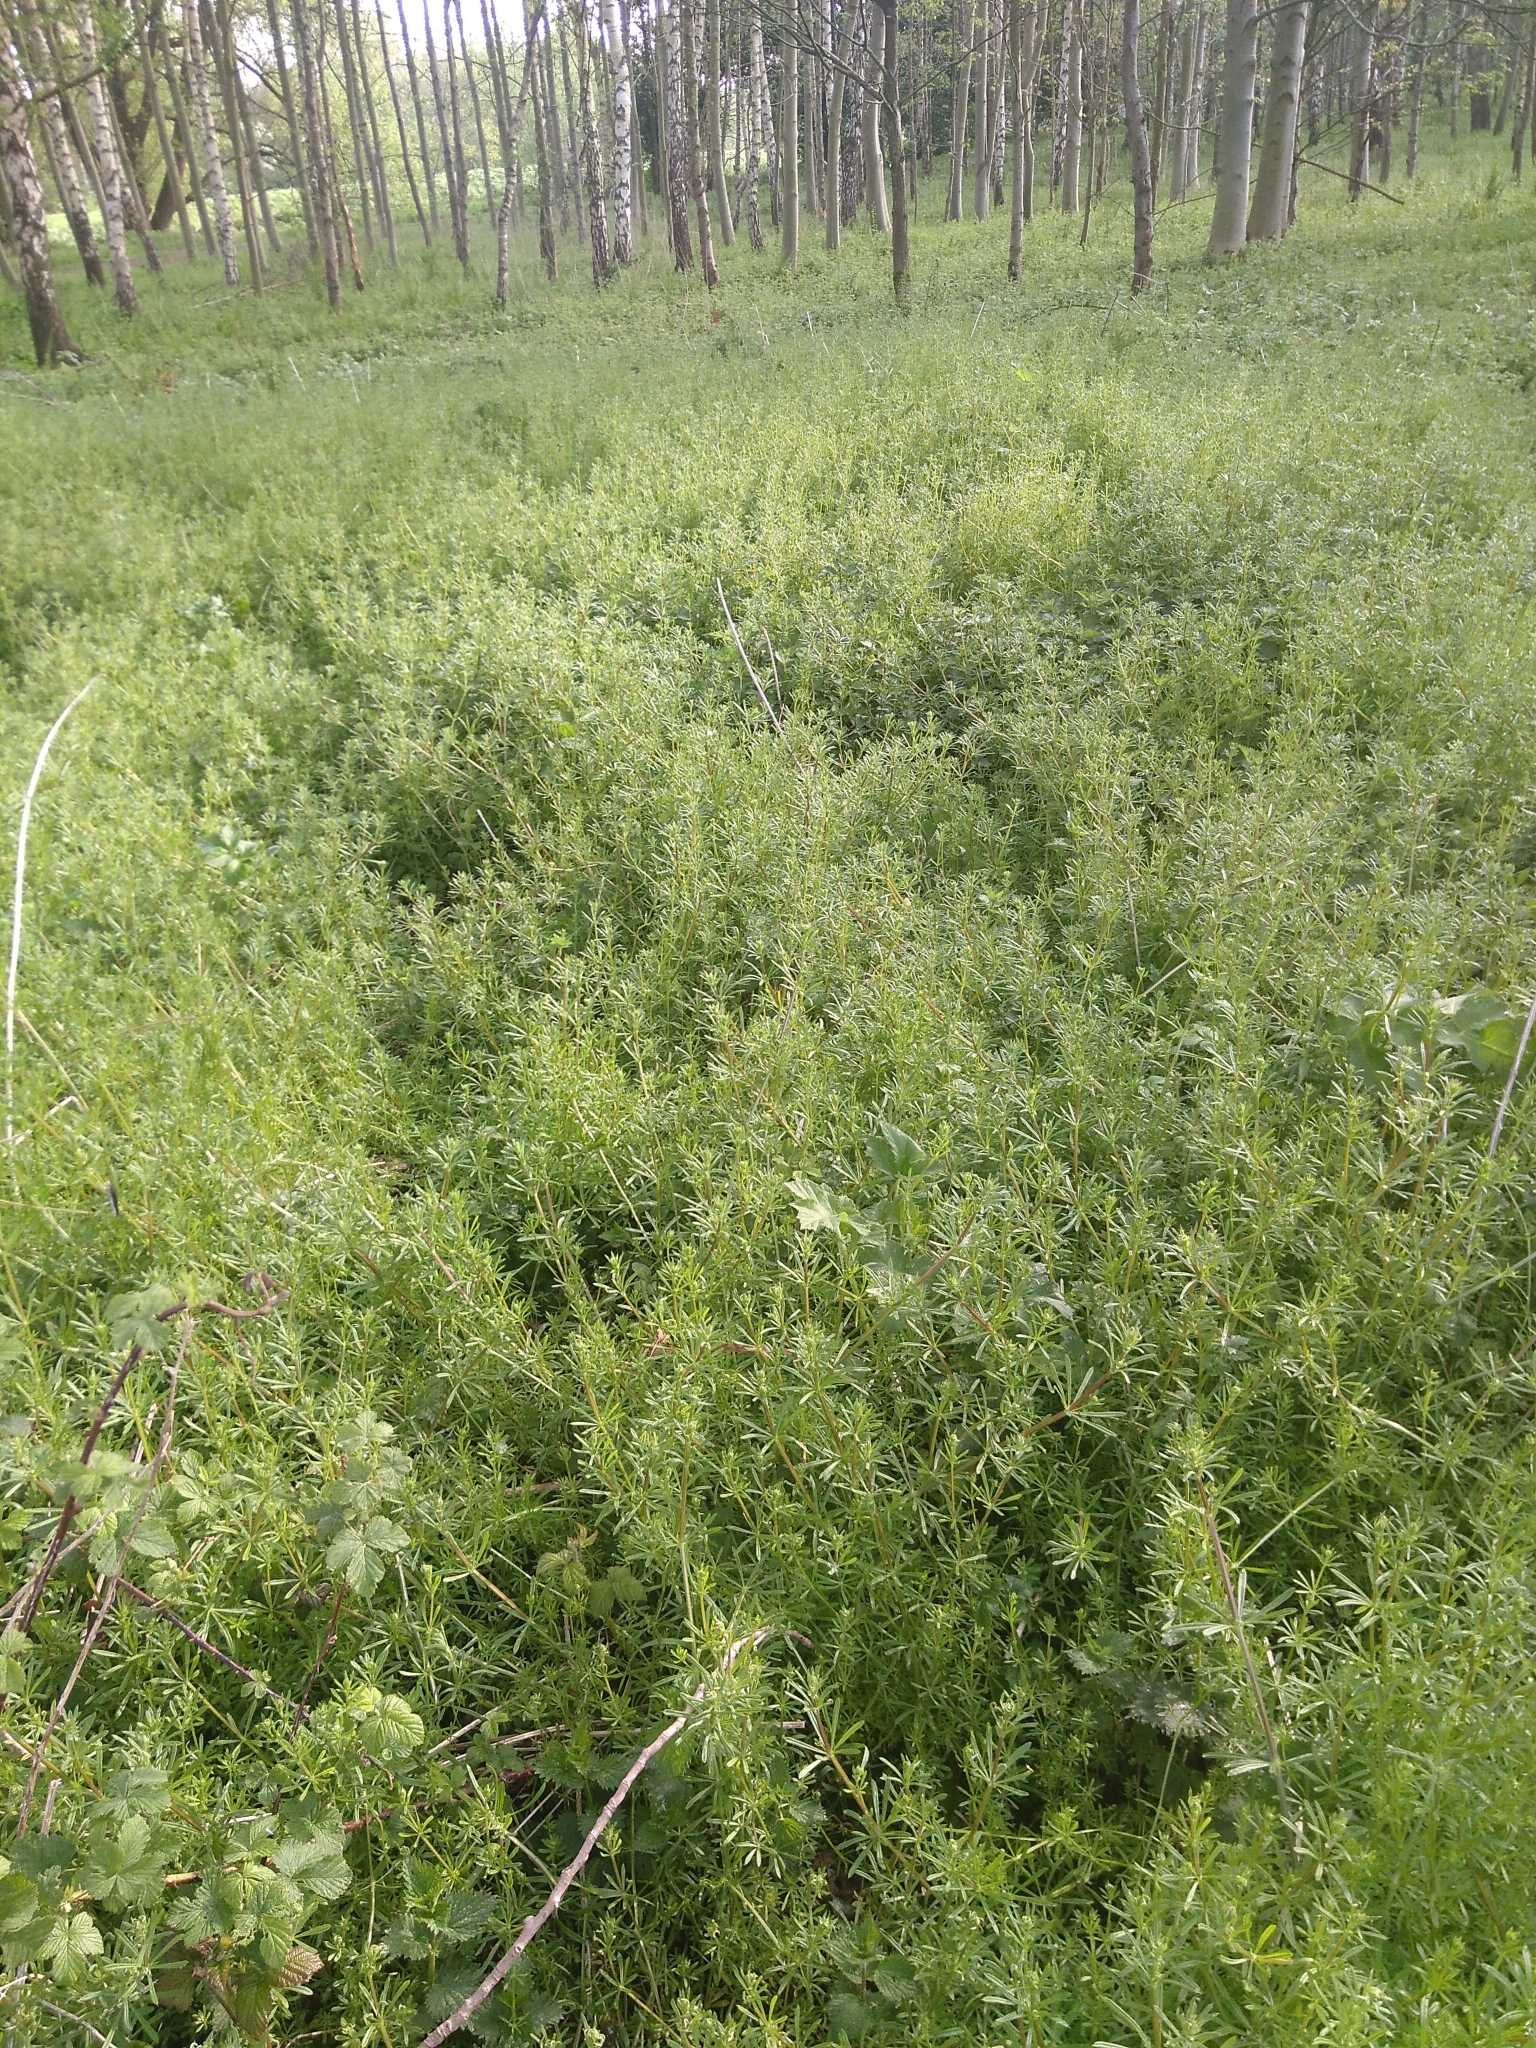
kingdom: Plantae
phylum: Tracheophyta
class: Magnoliopsida
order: Gentianales
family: Rubiaceae
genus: Galium
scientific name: Galium aparine
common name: Cleavers
